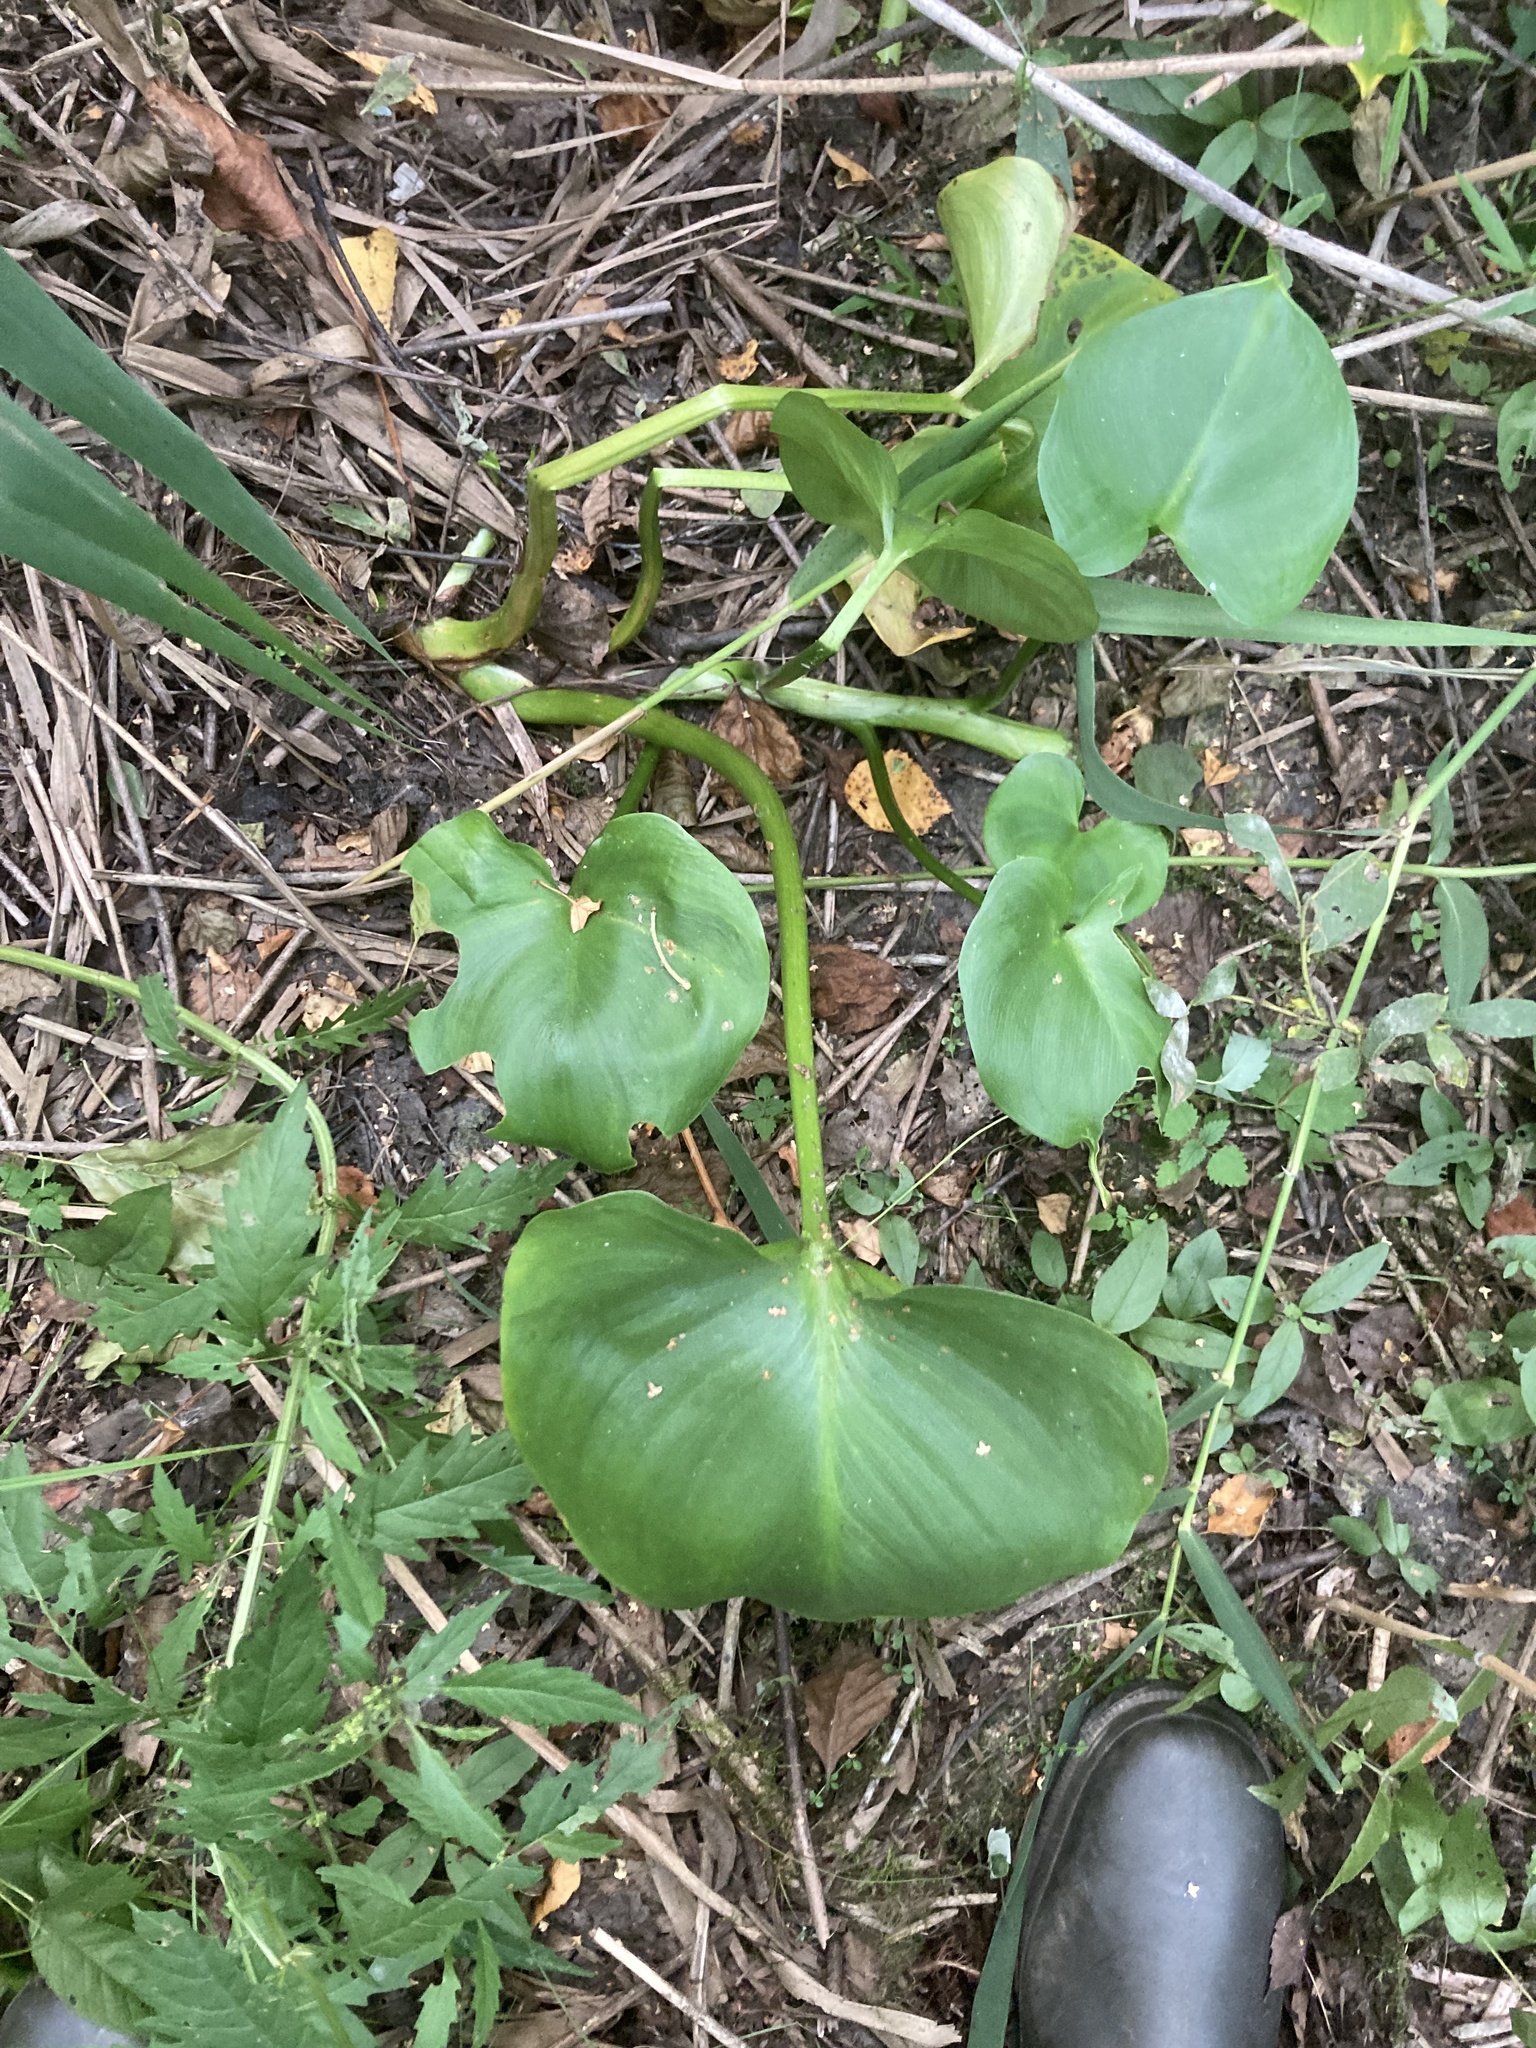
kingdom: Plantae
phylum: Tracheophyta
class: Liliopsida
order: Alismatales
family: Araceae
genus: Calla
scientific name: Calla palustris
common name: Bog arum
